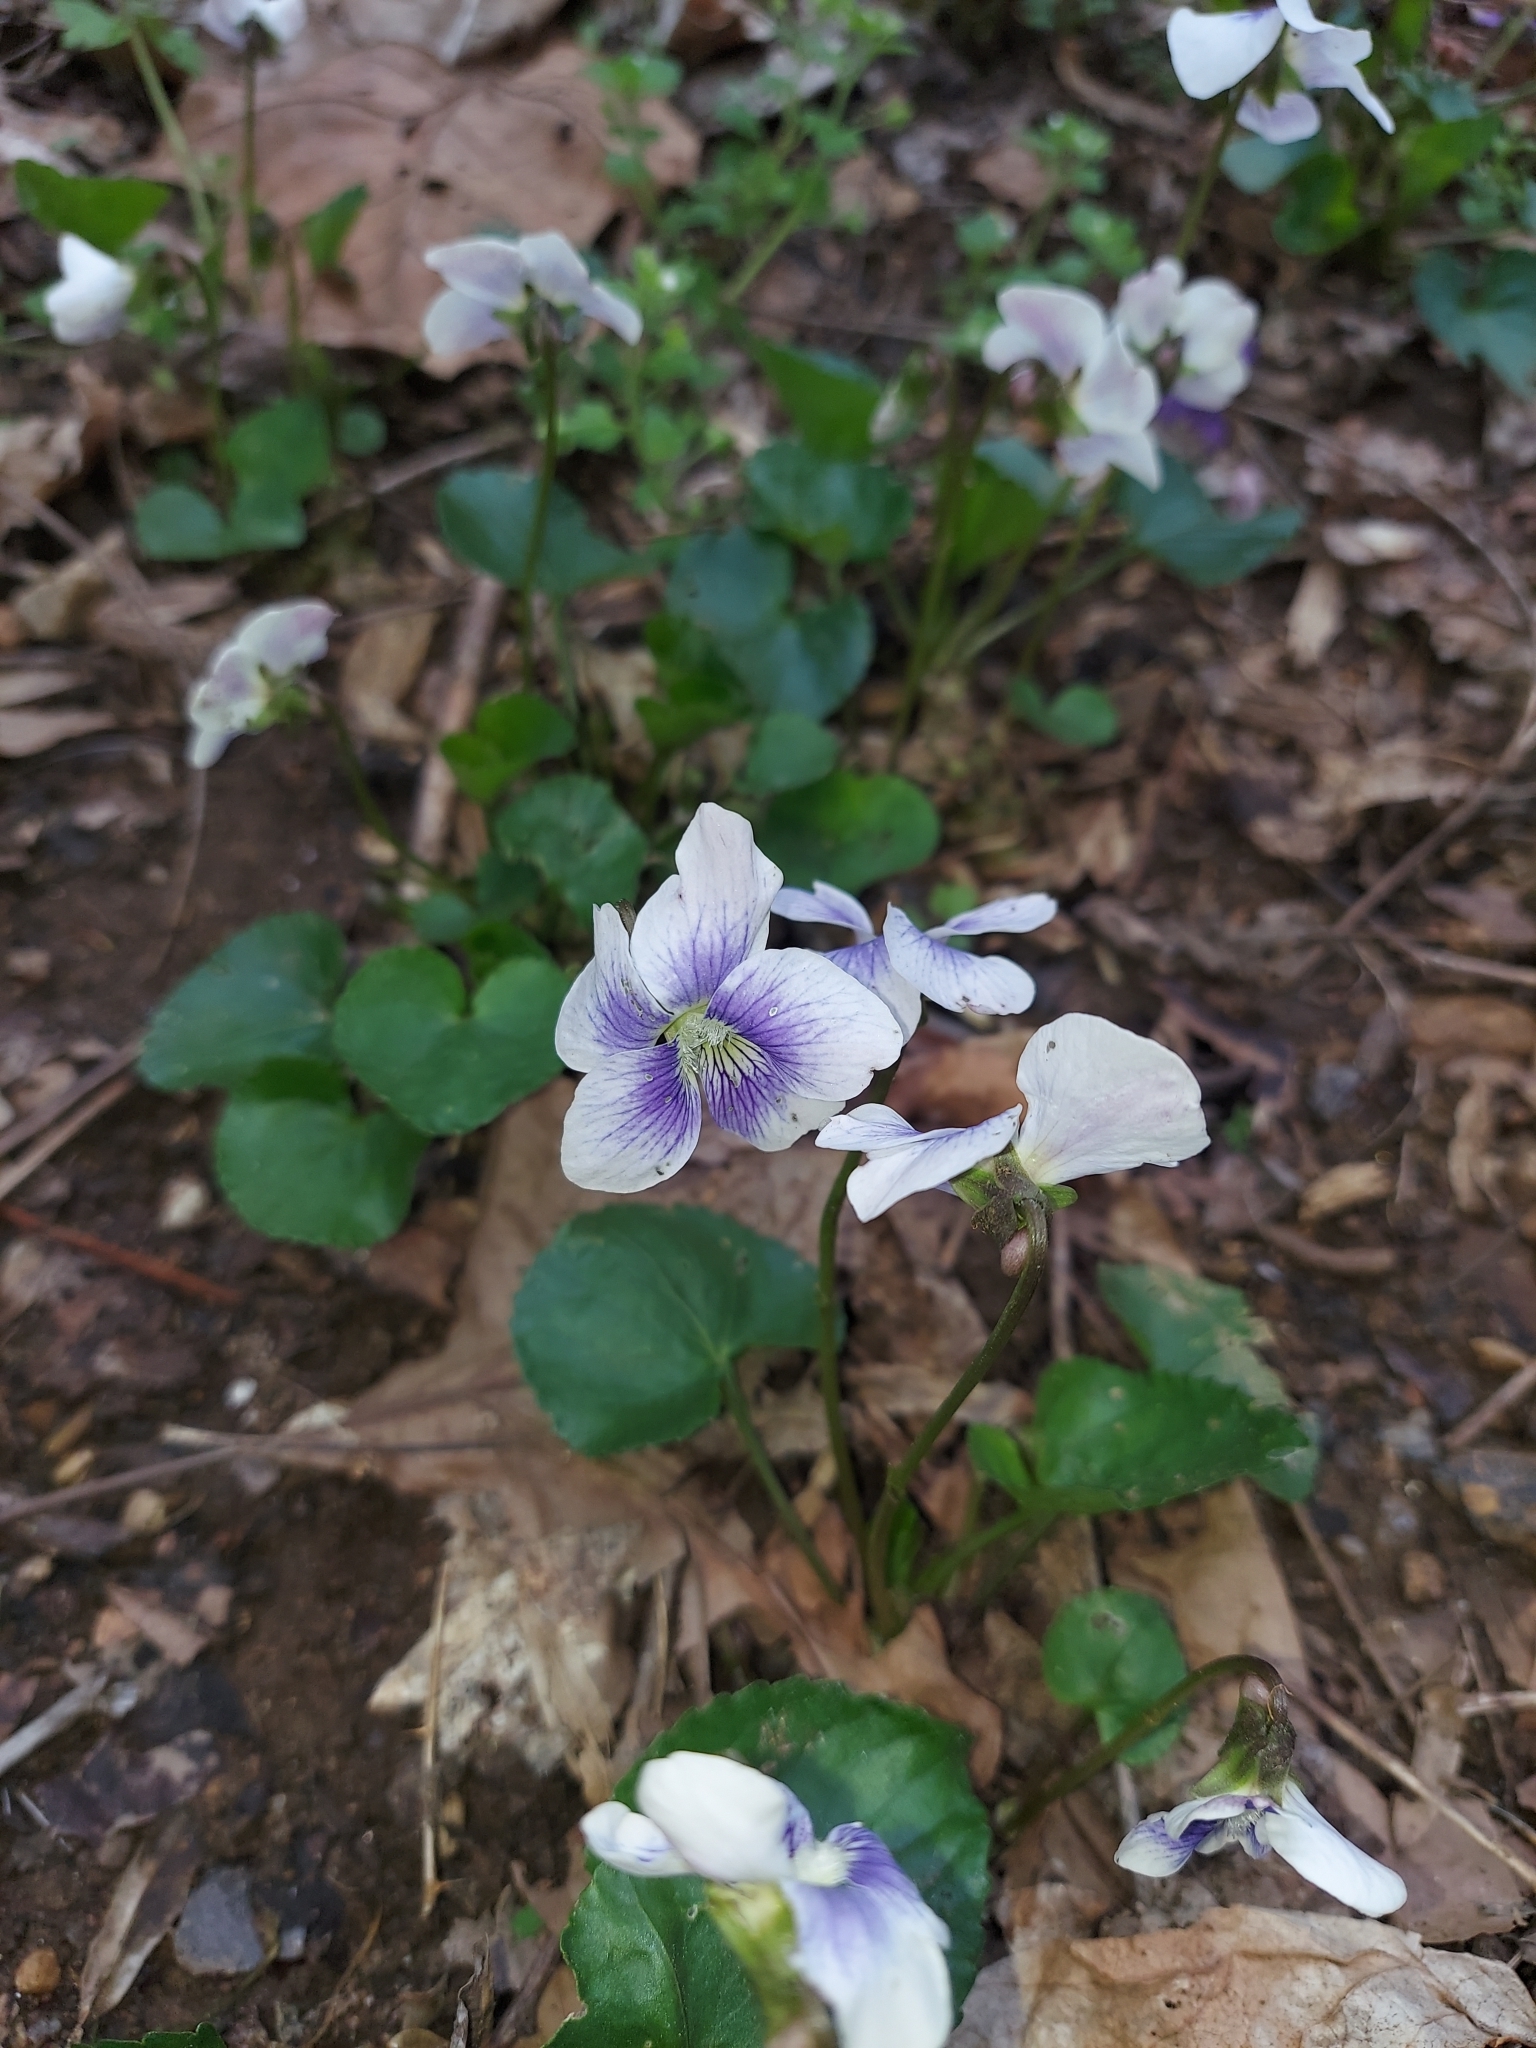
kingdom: Plantae
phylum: Tracheophyta
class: Magnoliopsida
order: Malpighiales
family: Violaceae
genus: Viola
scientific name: Viola sororia
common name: Dooryard violet
